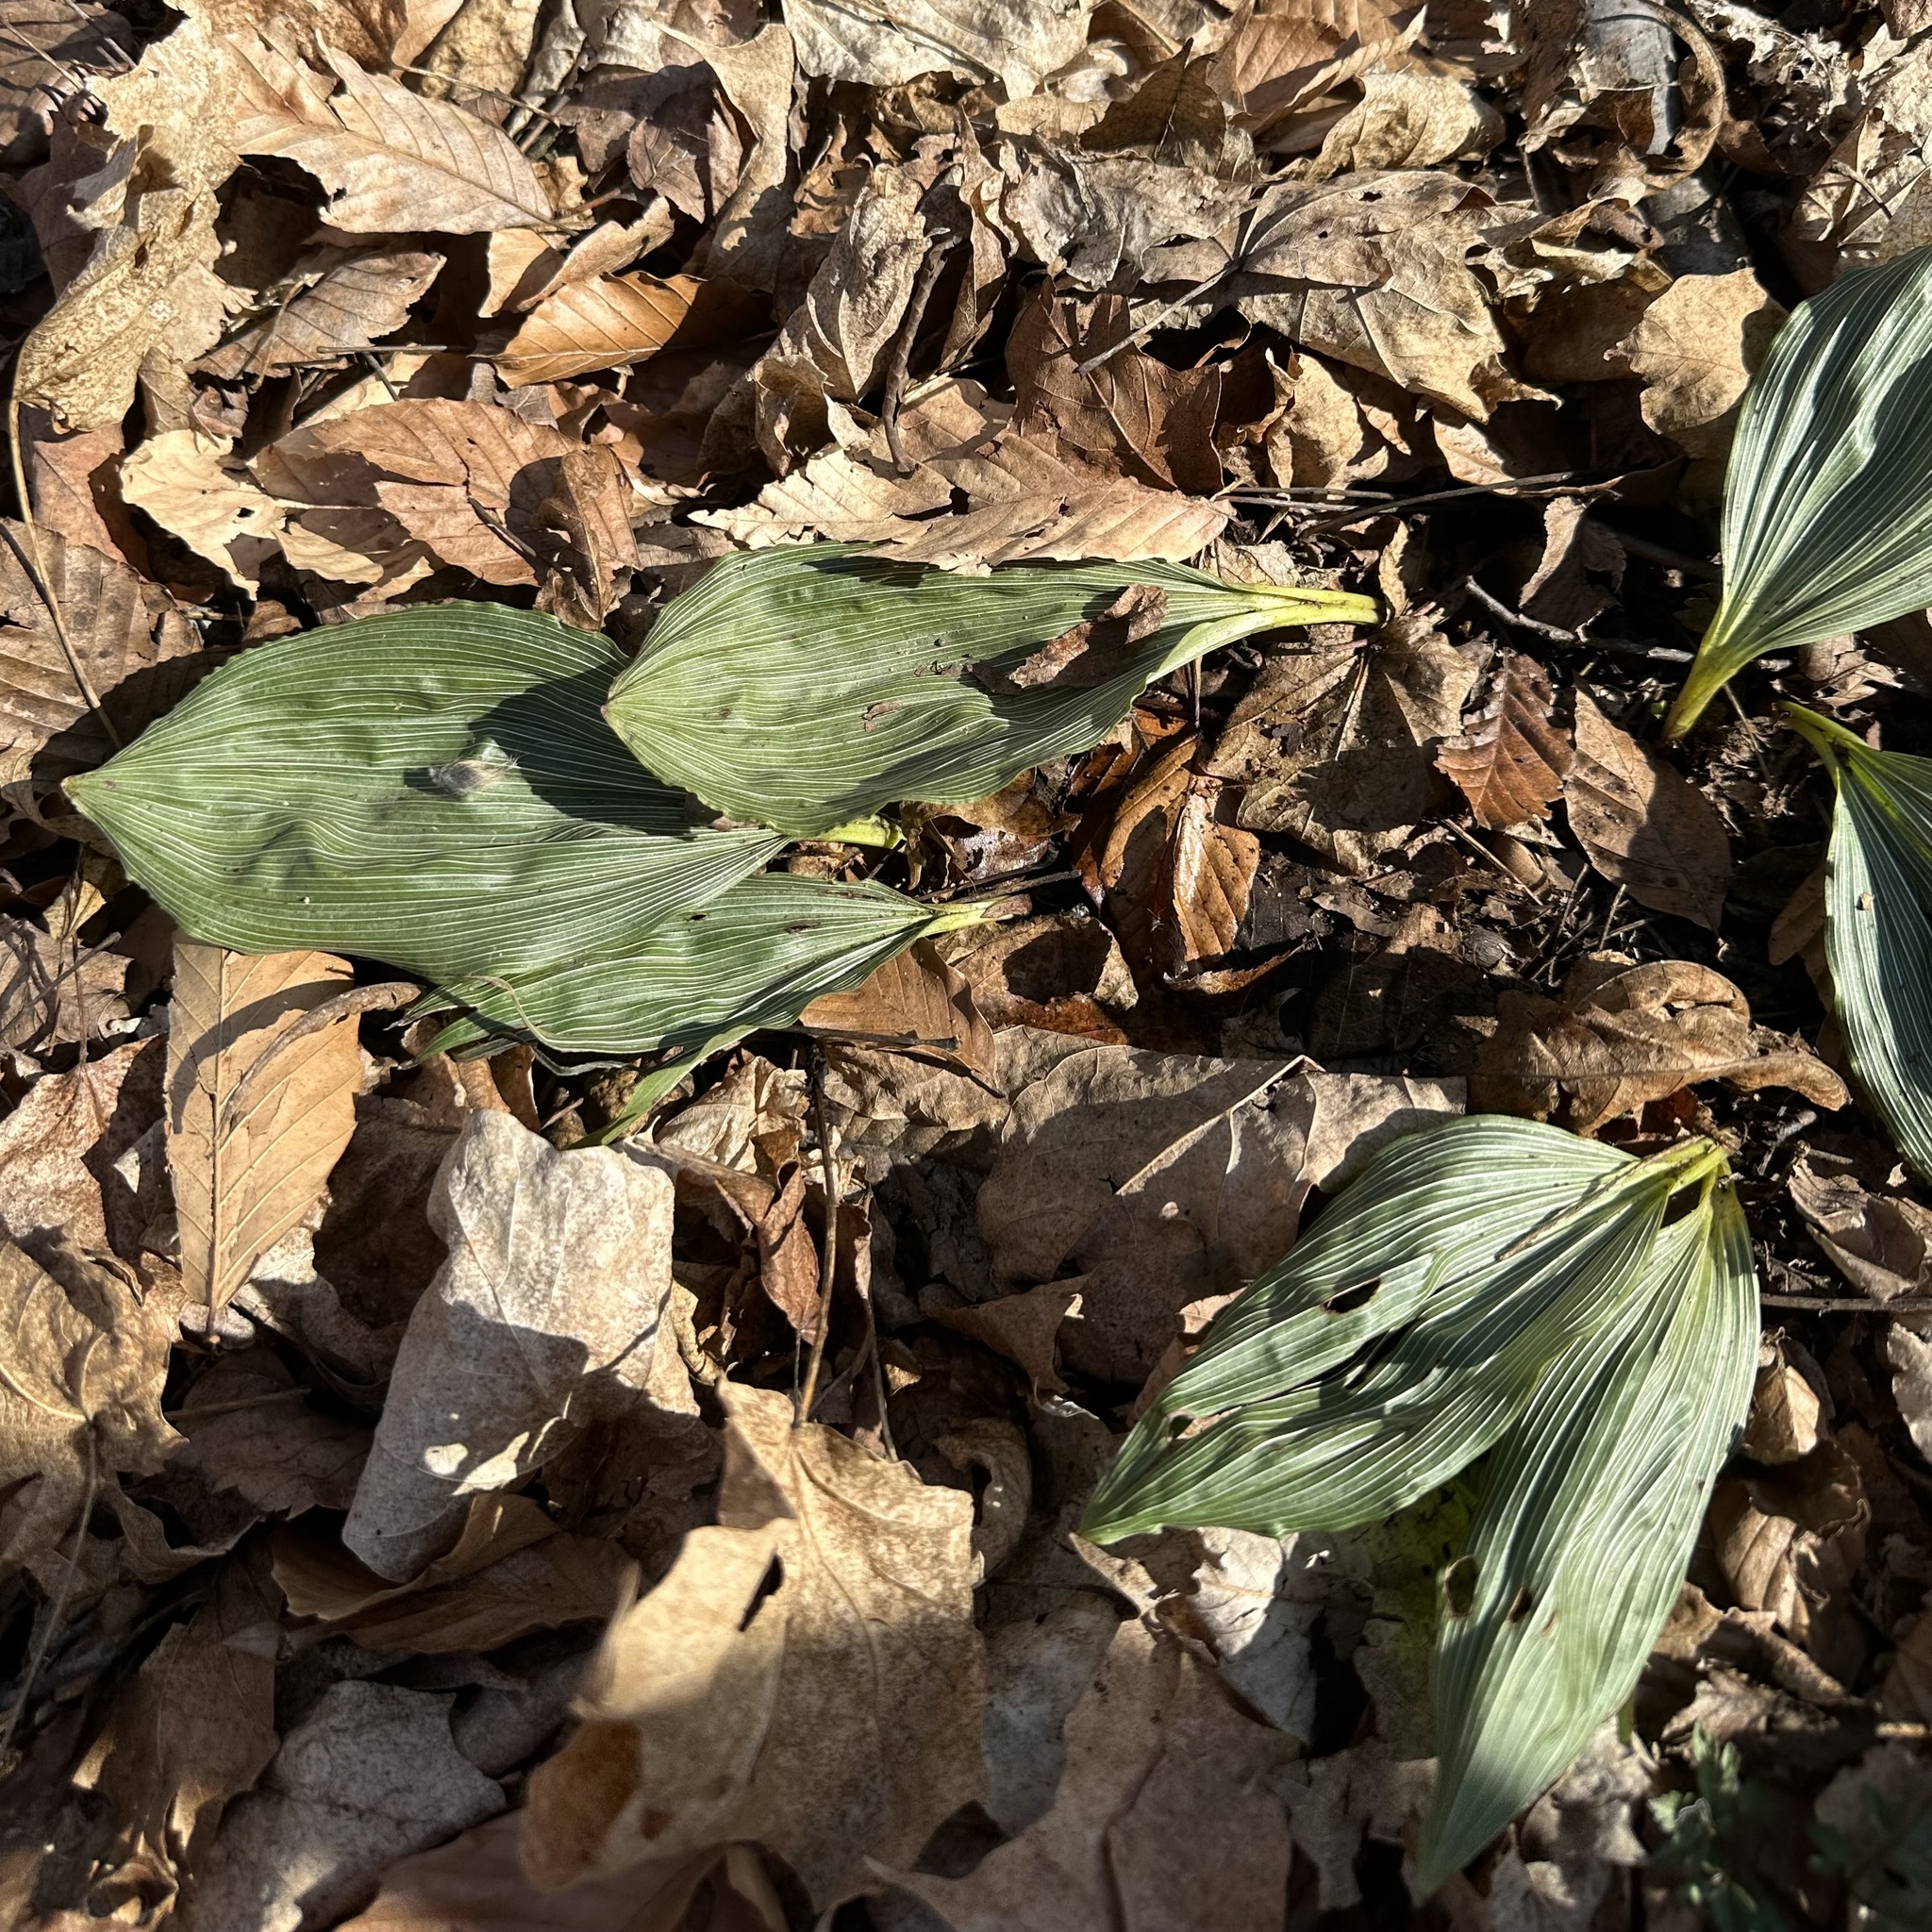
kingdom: Plantae
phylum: Tracheophyta
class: Liliopsida
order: Asparagales
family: Orchidaceae
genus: Aplectrum
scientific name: Aplectrum hyemale
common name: Adam-and-eve
